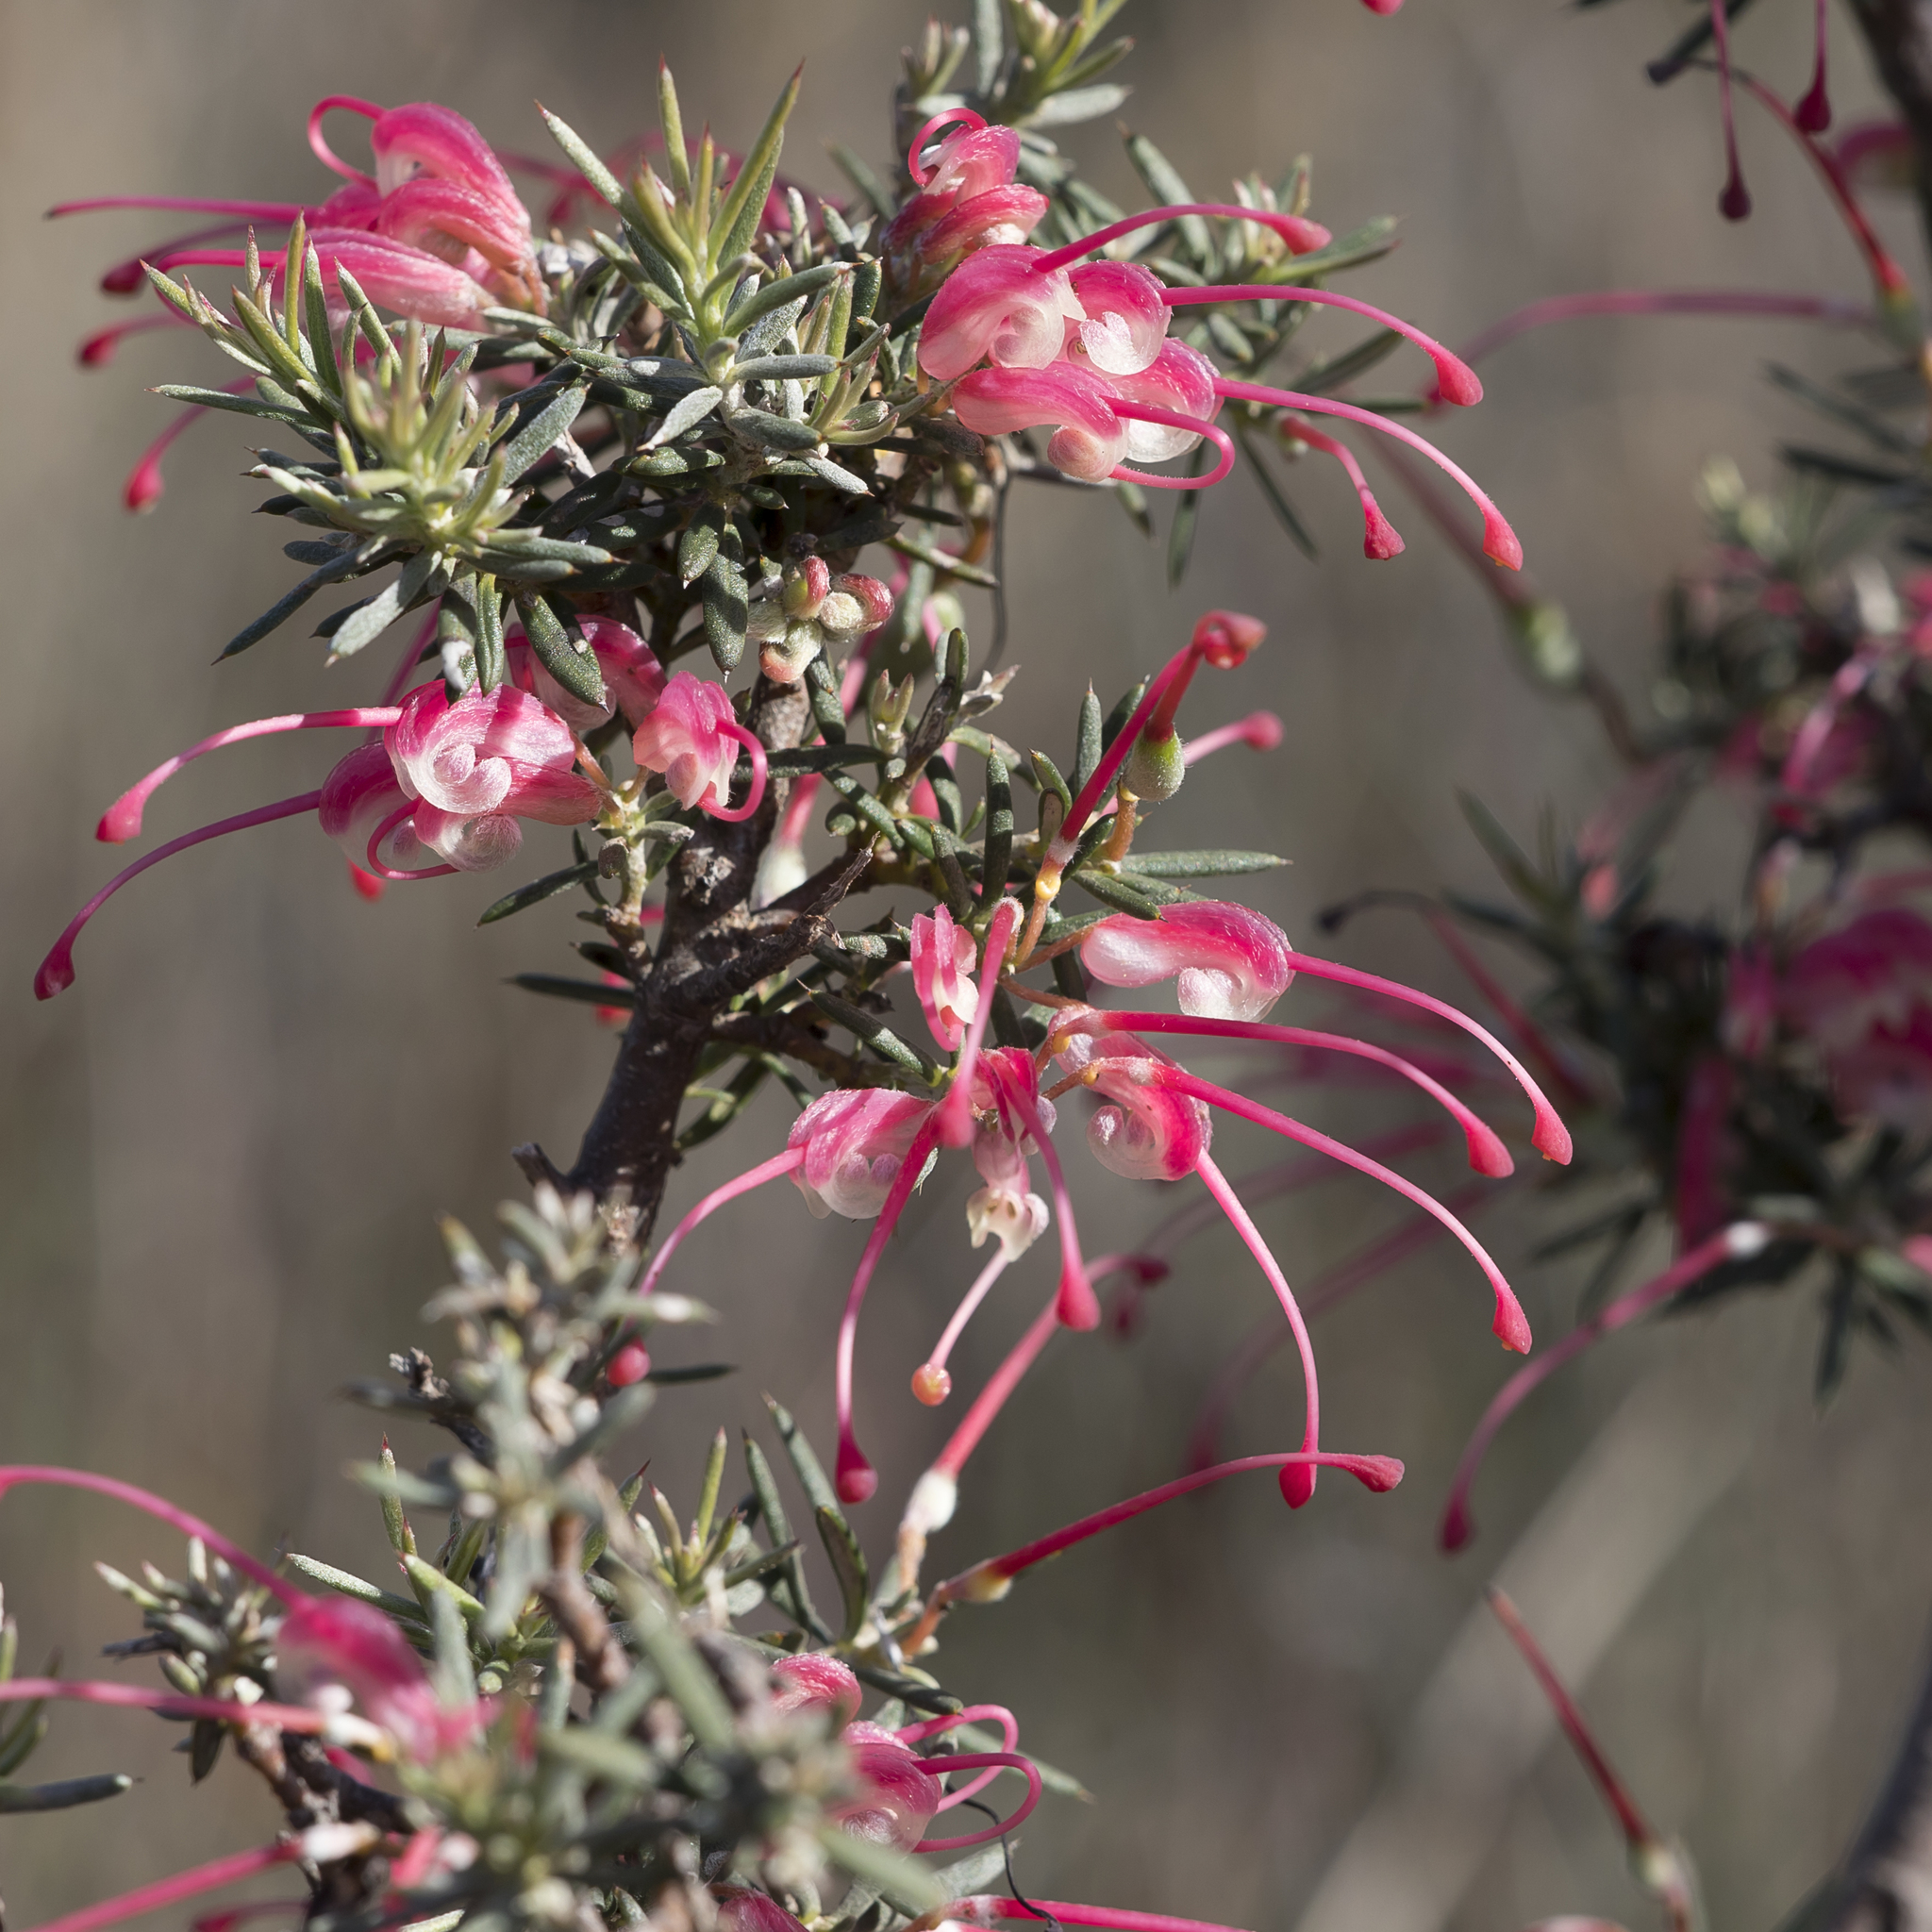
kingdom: Plantae
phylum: Tracheophyta
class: Magnoliopsida
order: Proteales
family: Proteaceae
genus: Grevillea
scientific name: Grevillea lavandulacea
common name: Lavender grevillea
